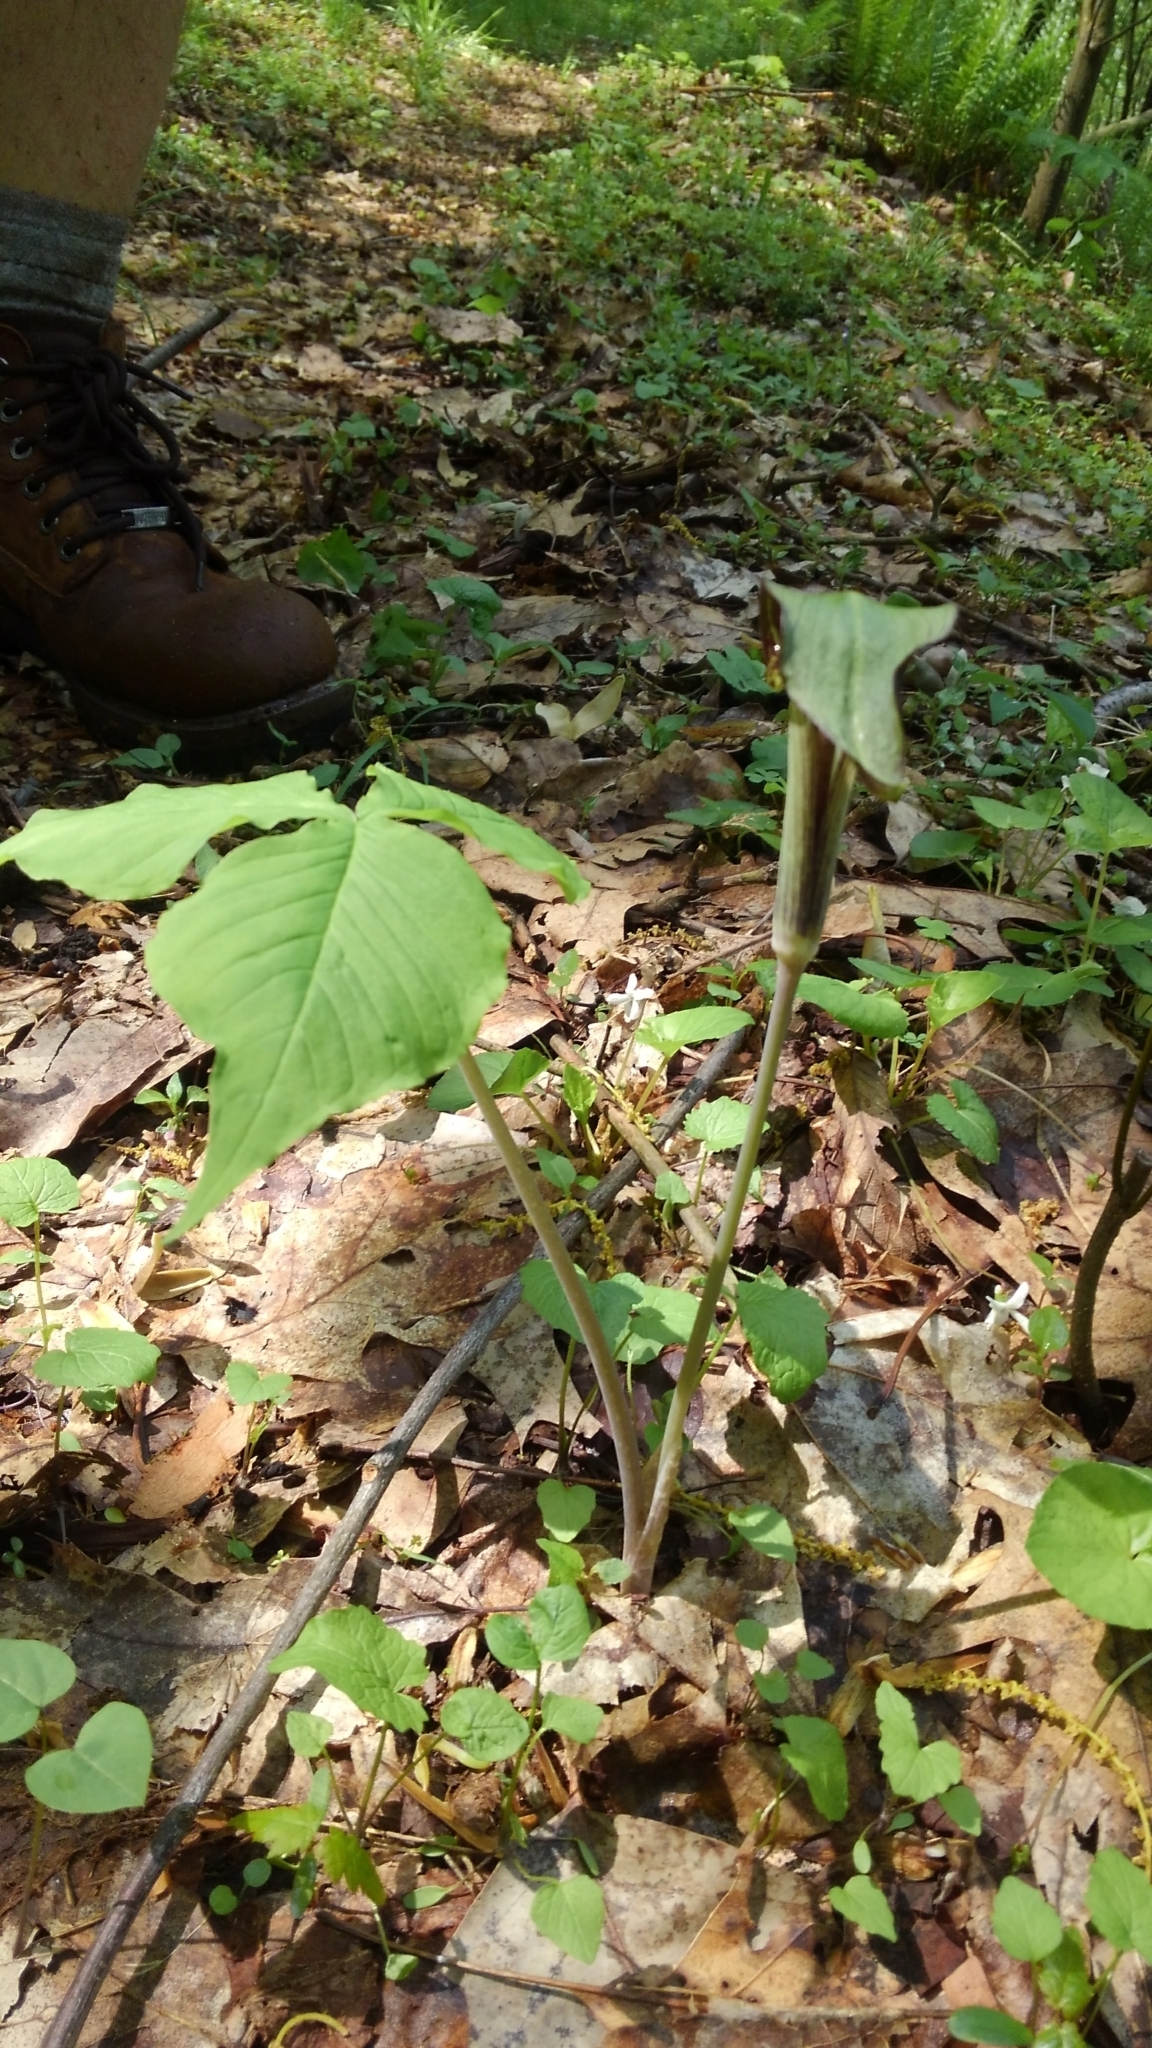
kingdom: Plantae
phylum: Tracheophyta
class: Liliopsida
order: Alismatales
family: Araceae
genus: Arisaema
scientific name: Arisaema triphyllum
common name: Jack-in-the-pulpit
